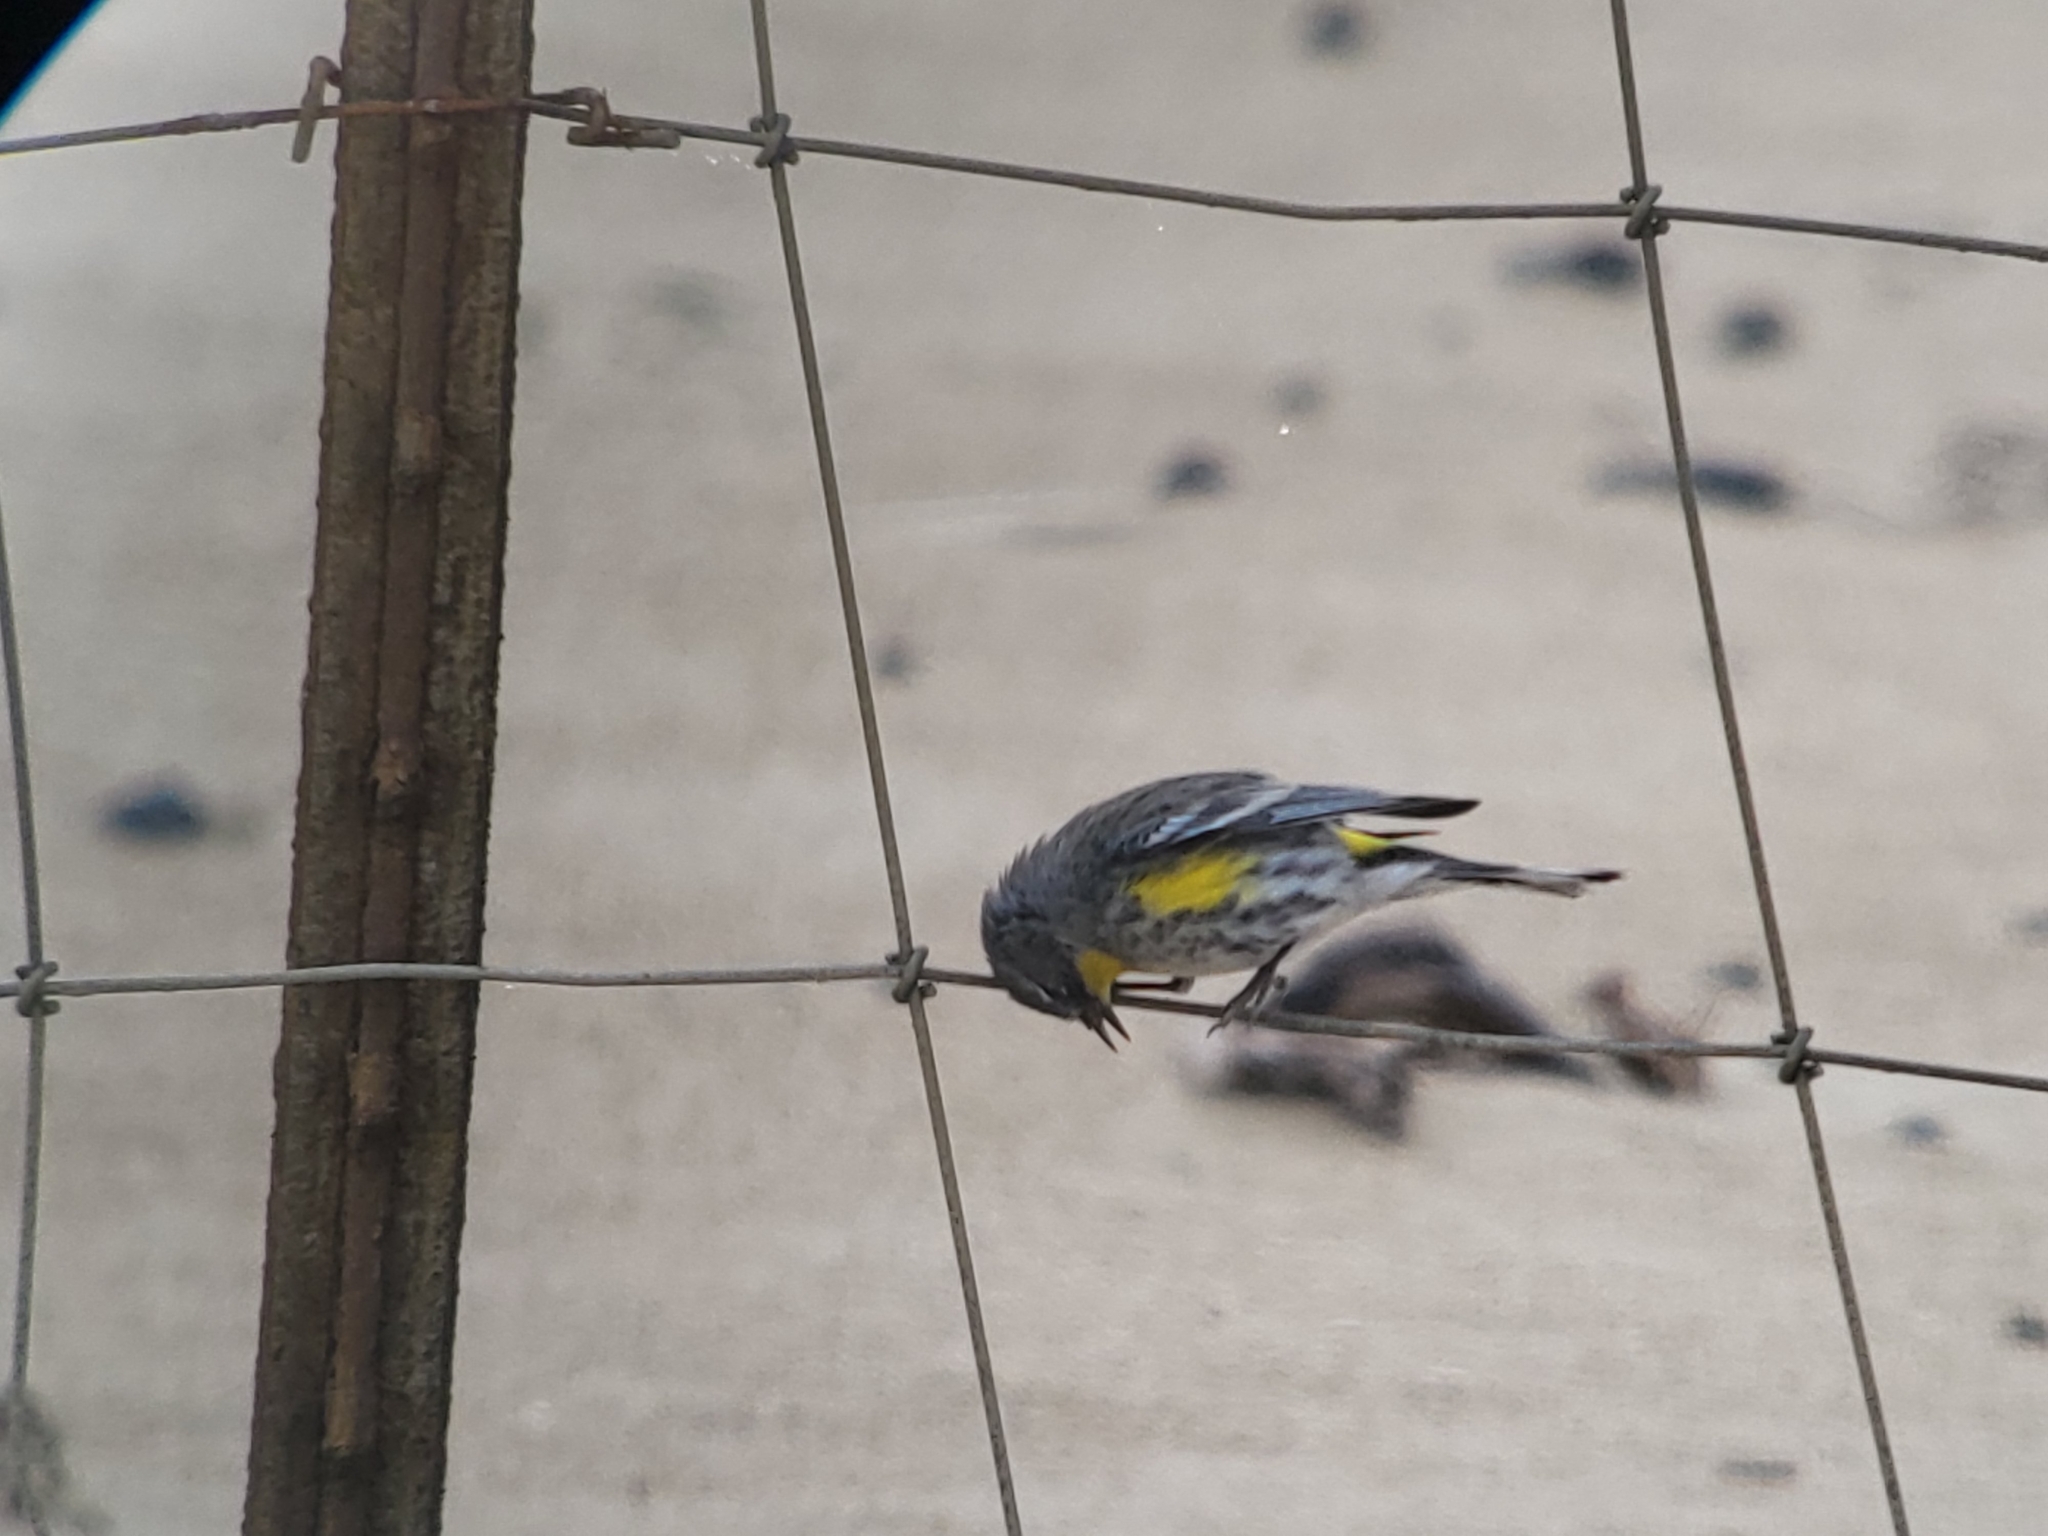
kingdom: Animalia
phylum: Chordata
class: Aves
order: Passeriformes
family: Parulidae
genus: Setophaga
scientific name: Setophaga auduboni
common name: Audubon's warbler
